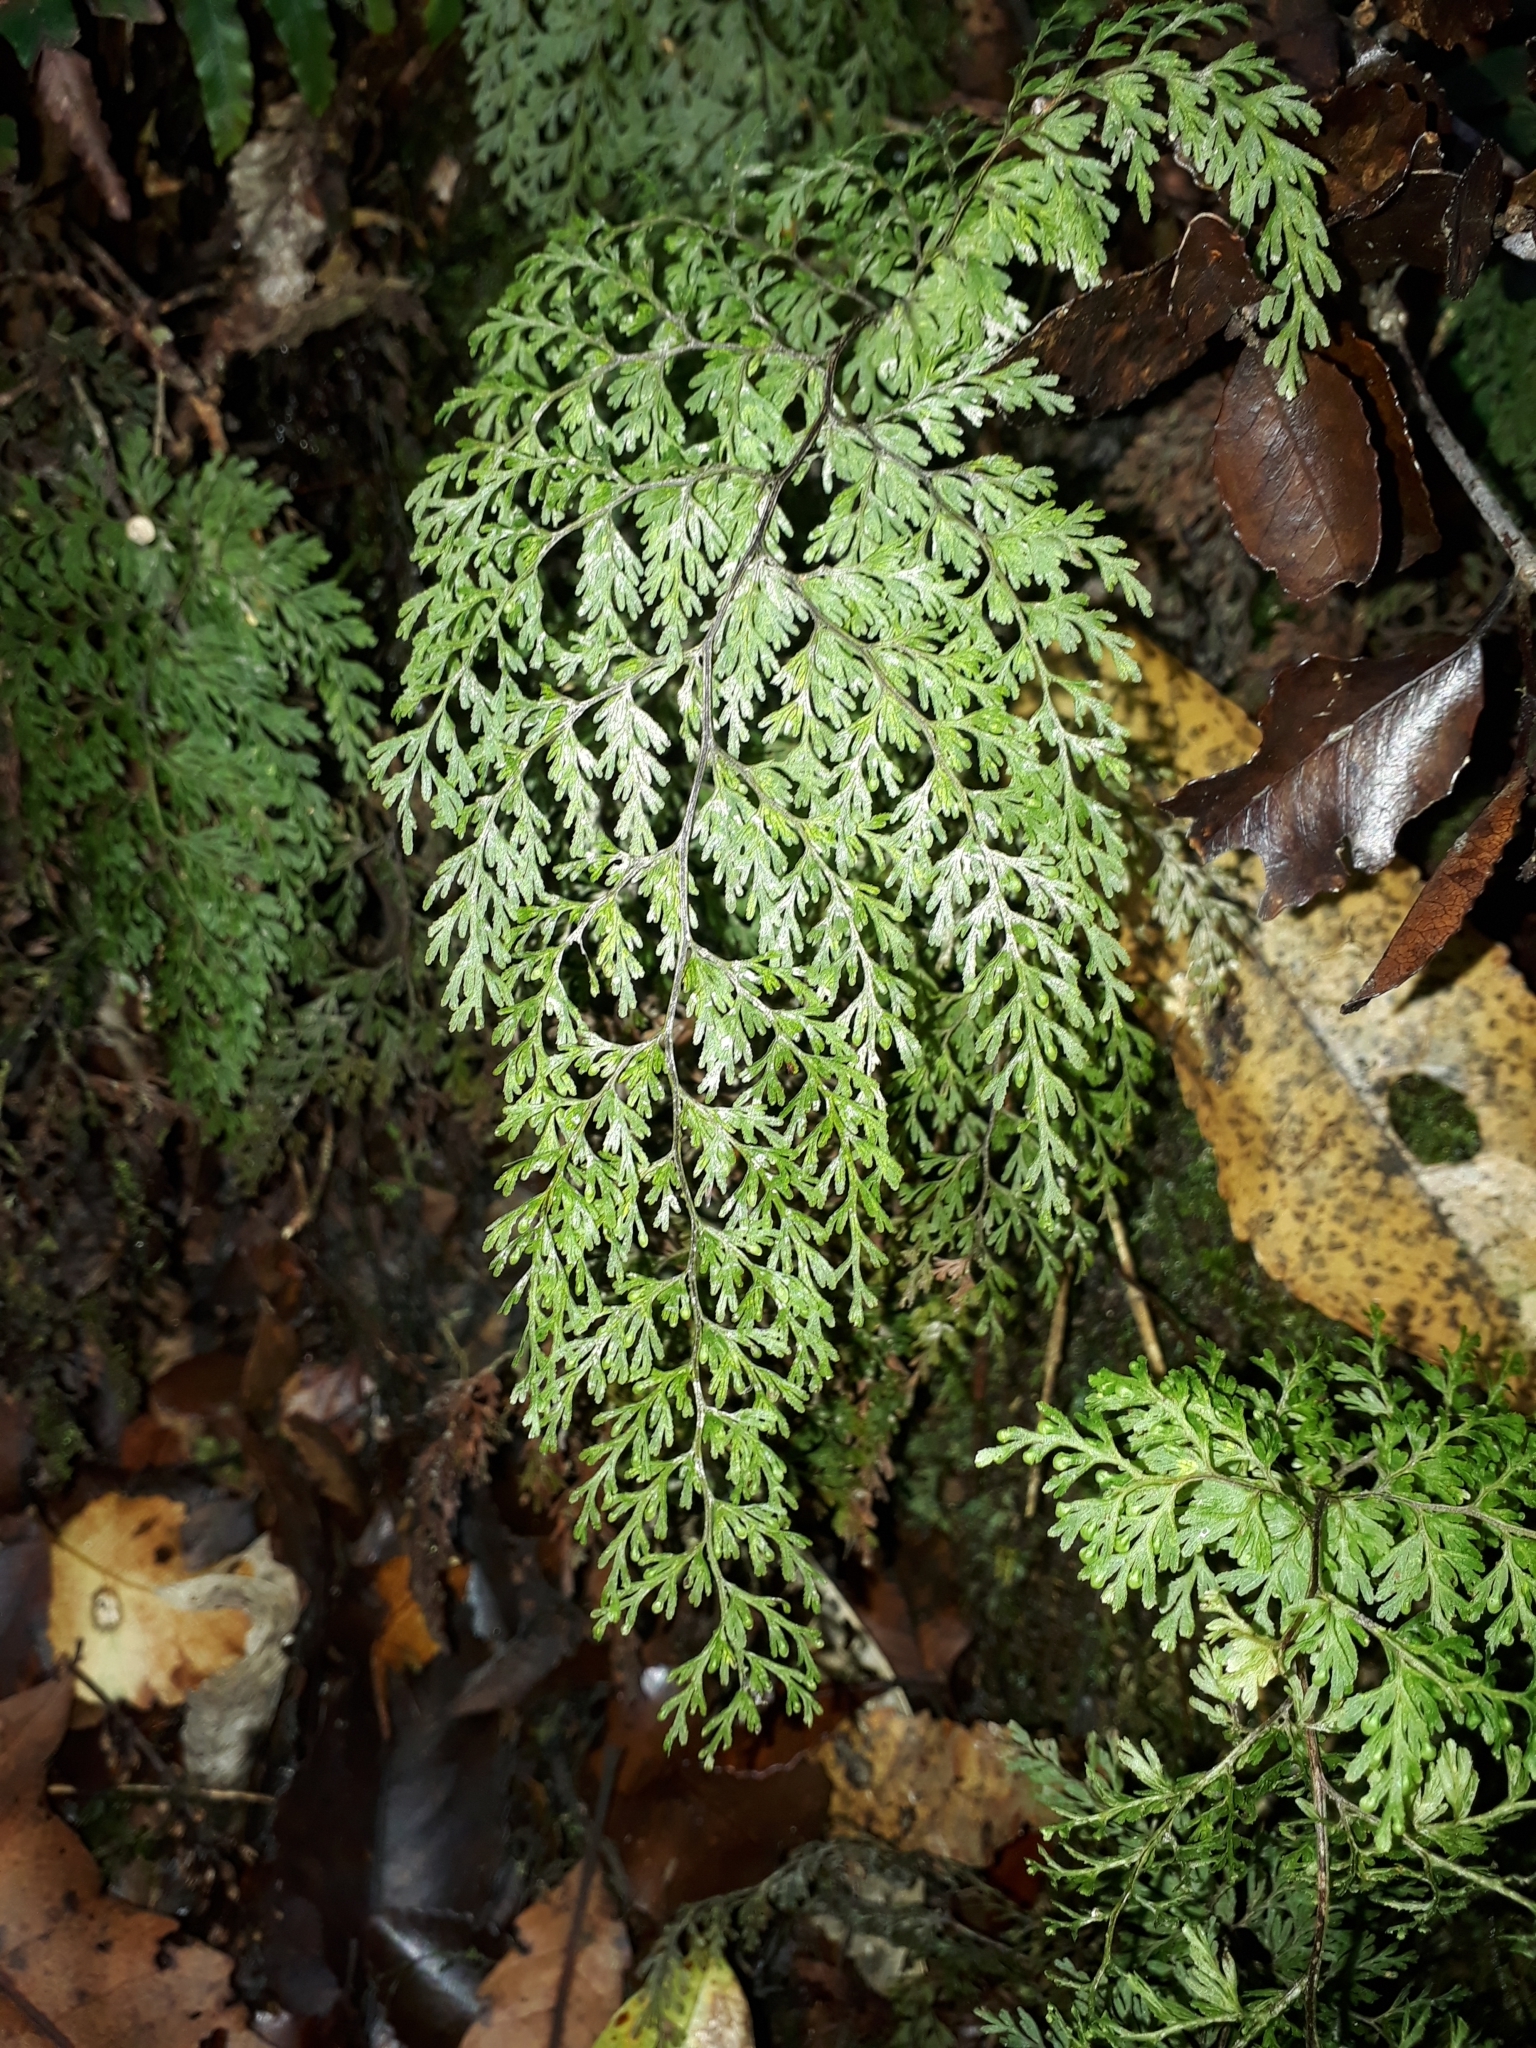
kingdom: Plantae
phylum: Tracheophyta
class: Polypodiopsida
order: Hymenophyllales
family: Hymenophyllaceae
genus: Hymenophyllum
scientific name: Hymenophyllum bivalve
